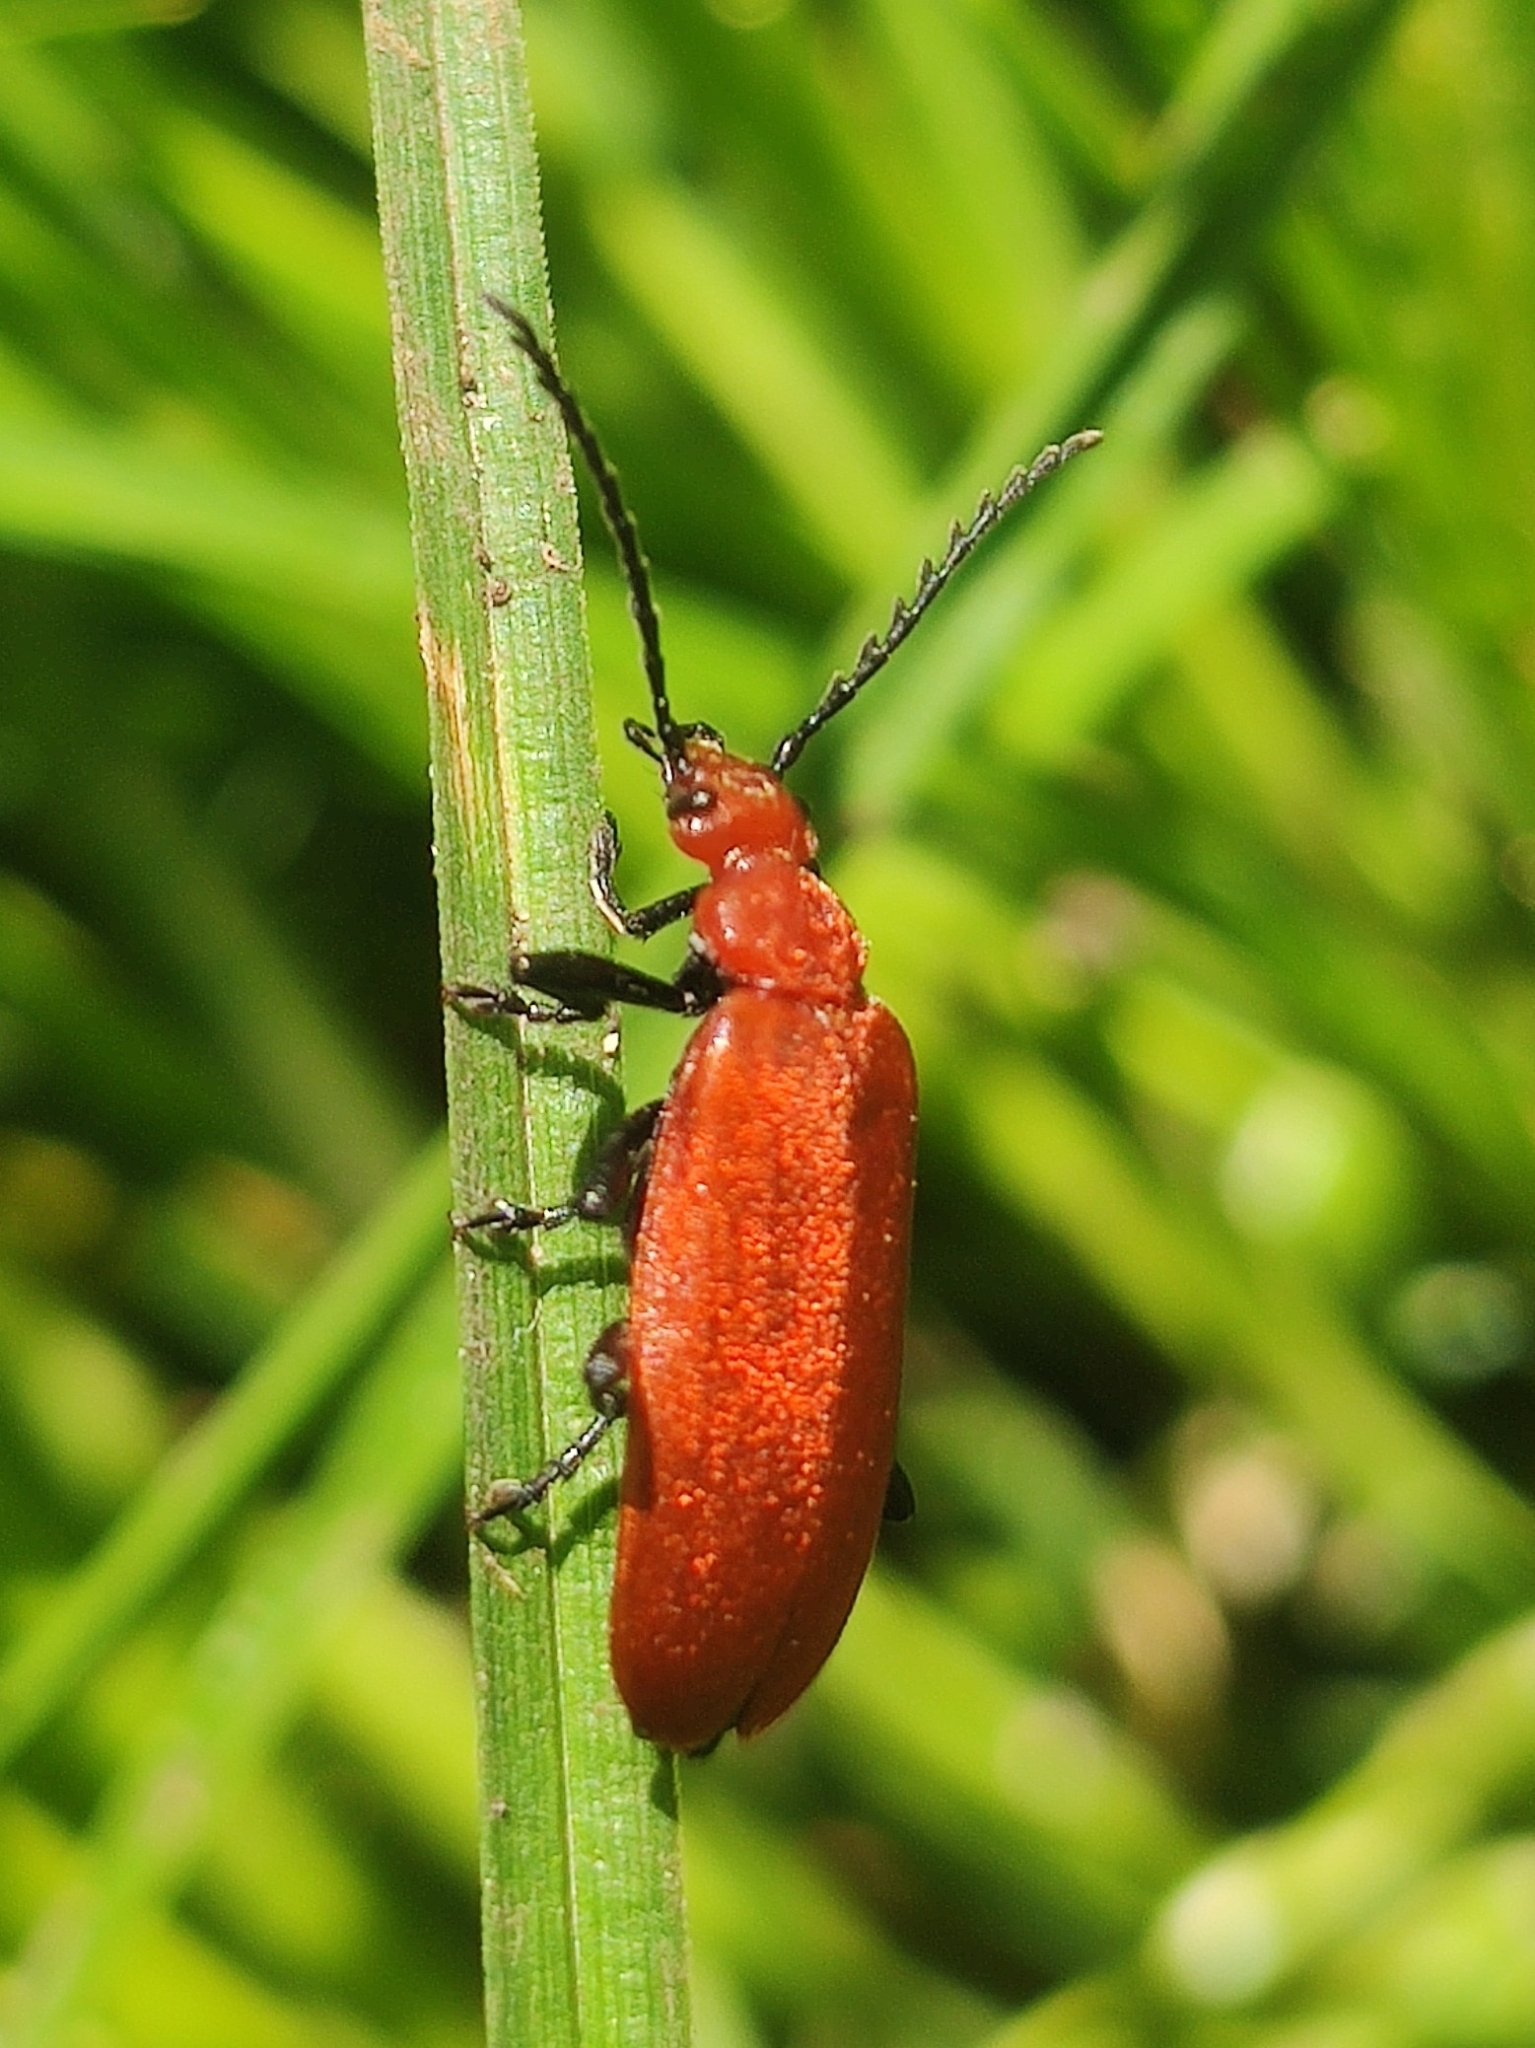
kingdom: Animalia
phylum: Arthropoda
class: Insecta
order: Coleoptera
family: Pyrochroidae
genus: Pyrochroa
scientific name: Pyrochroa serraticornis
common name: Red-headed cardinal beetle
